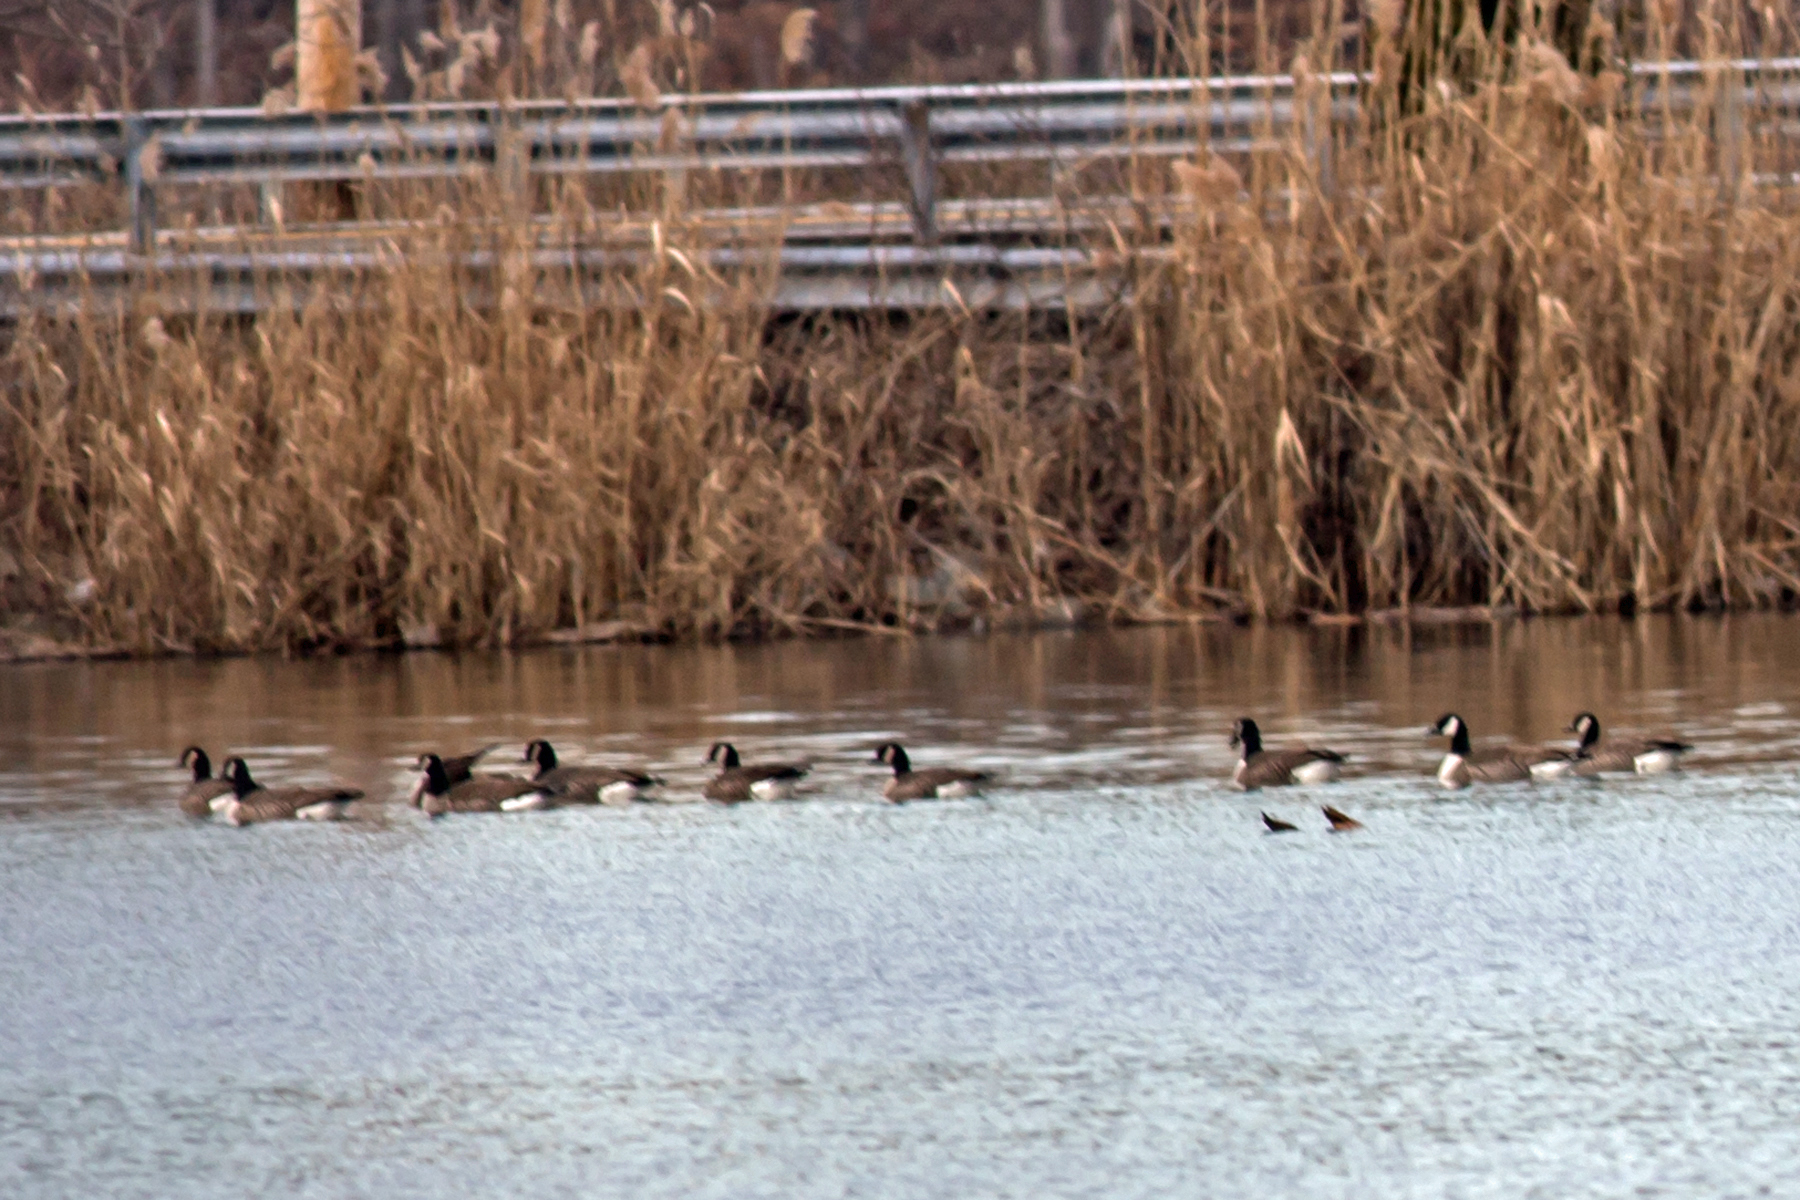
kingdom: Animalia
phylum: Chordata
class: Aves
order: Anseriformes
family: Anatidae
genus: Branta
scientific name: Branta canadensis
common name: Canada goose
